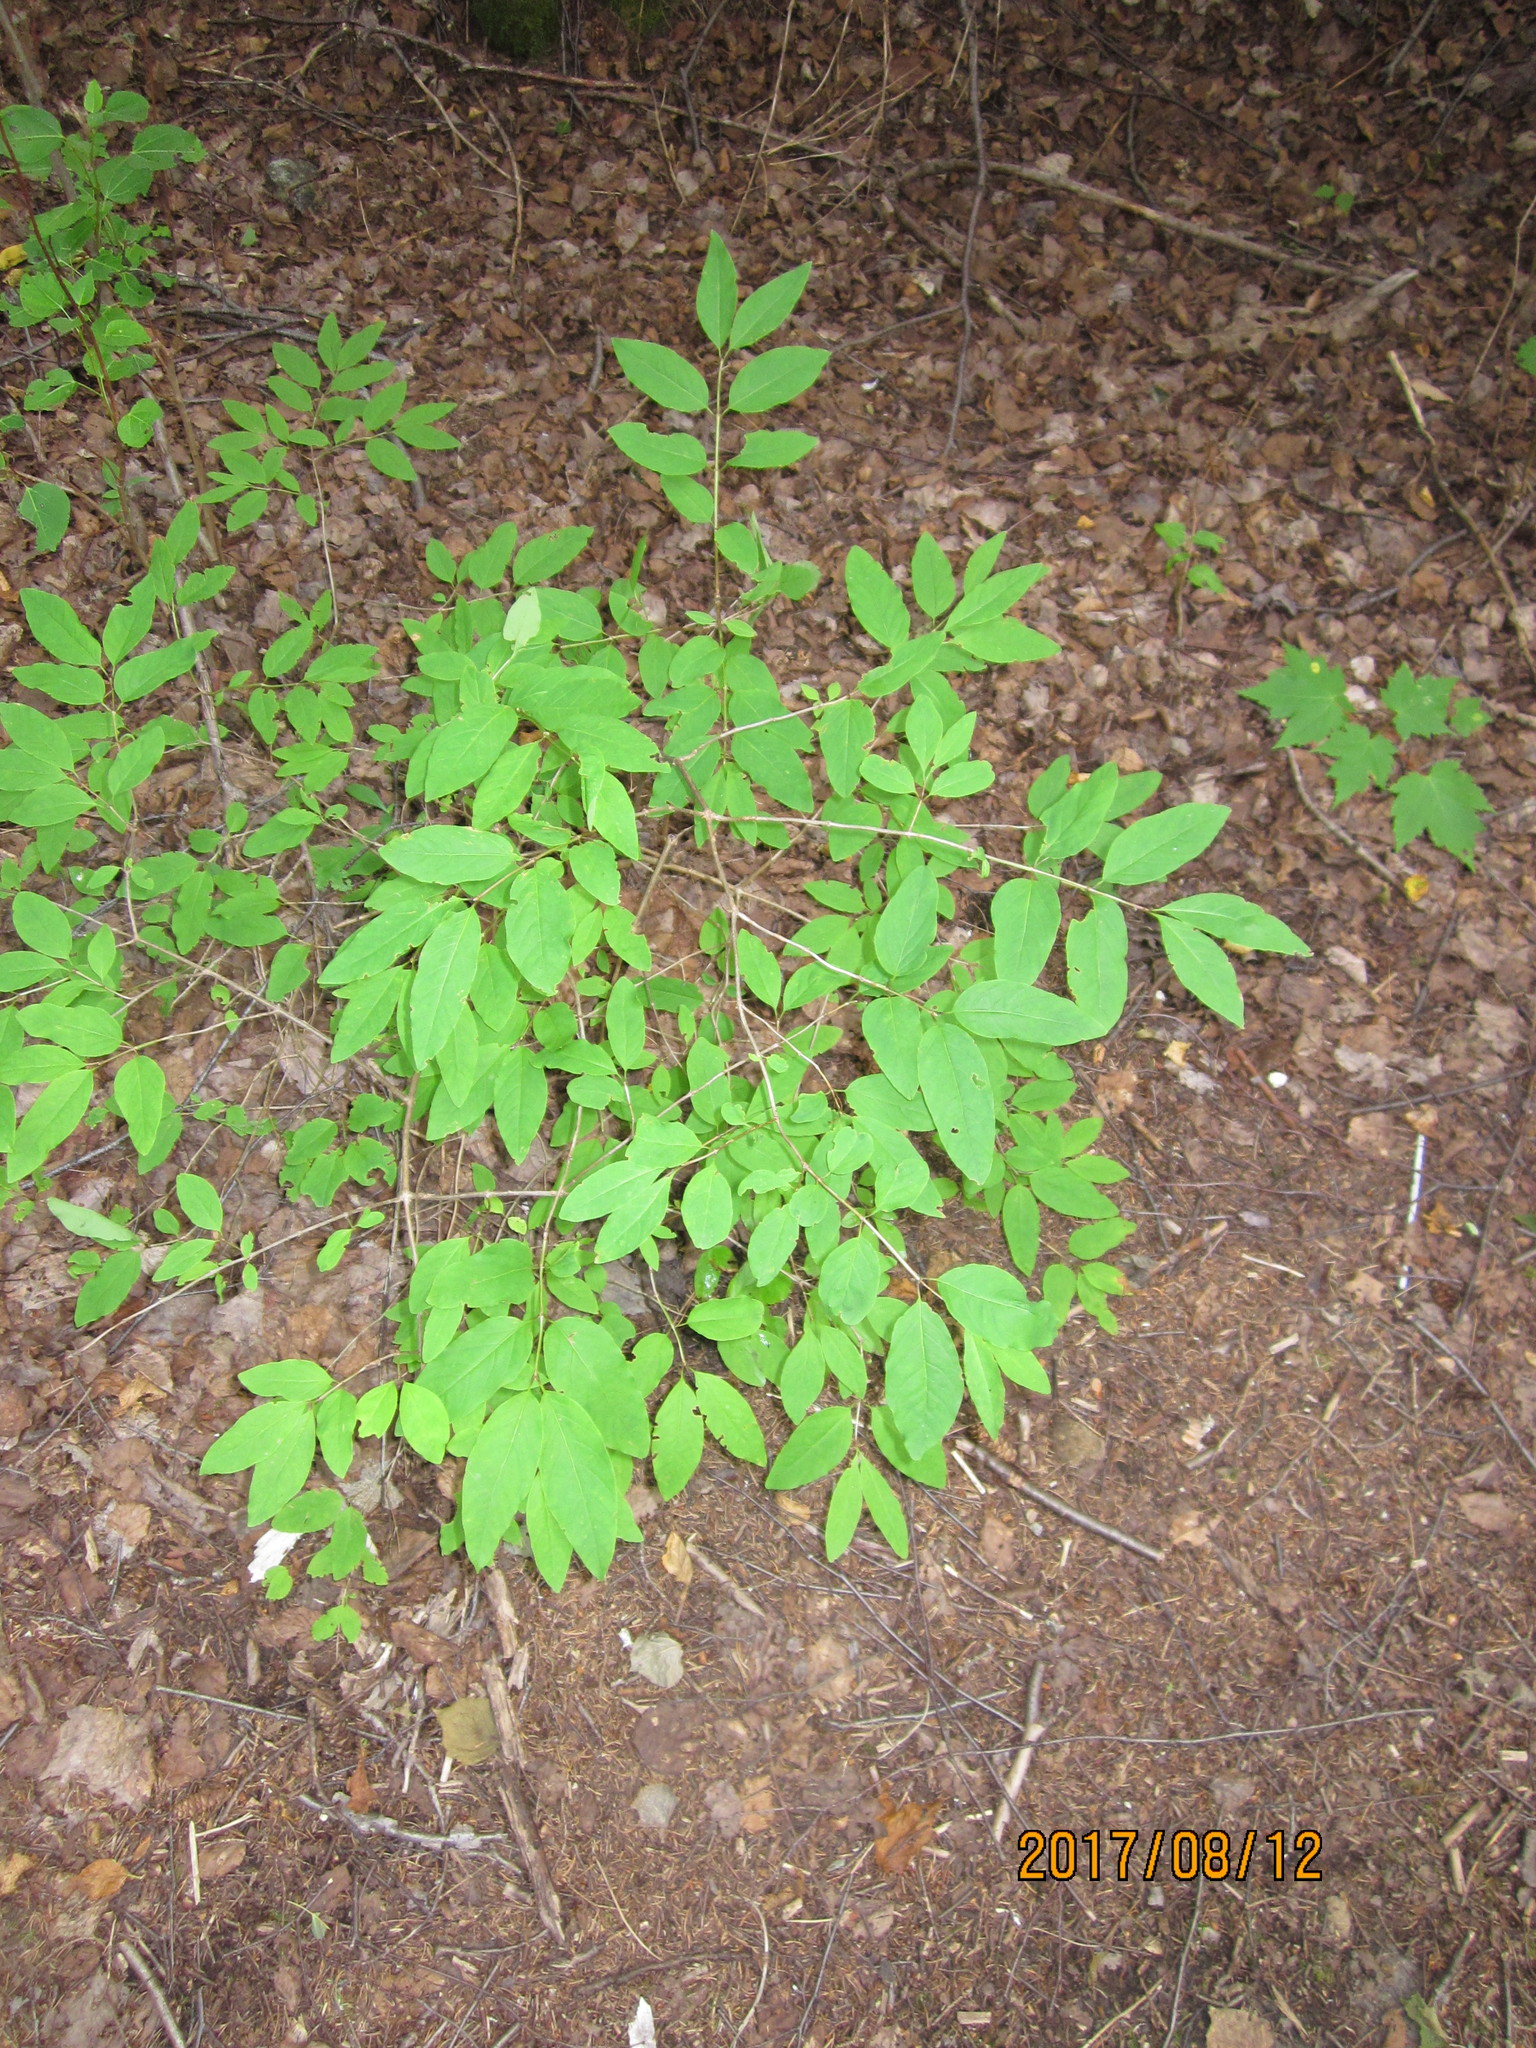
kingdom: Plantae
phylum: Tracheophyta
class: Magnoliopsida
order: Dipsacales
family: Caprifoliaceae
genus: Lonicera
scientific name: Lonicera canadensis
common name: American fly-honeysuckle
